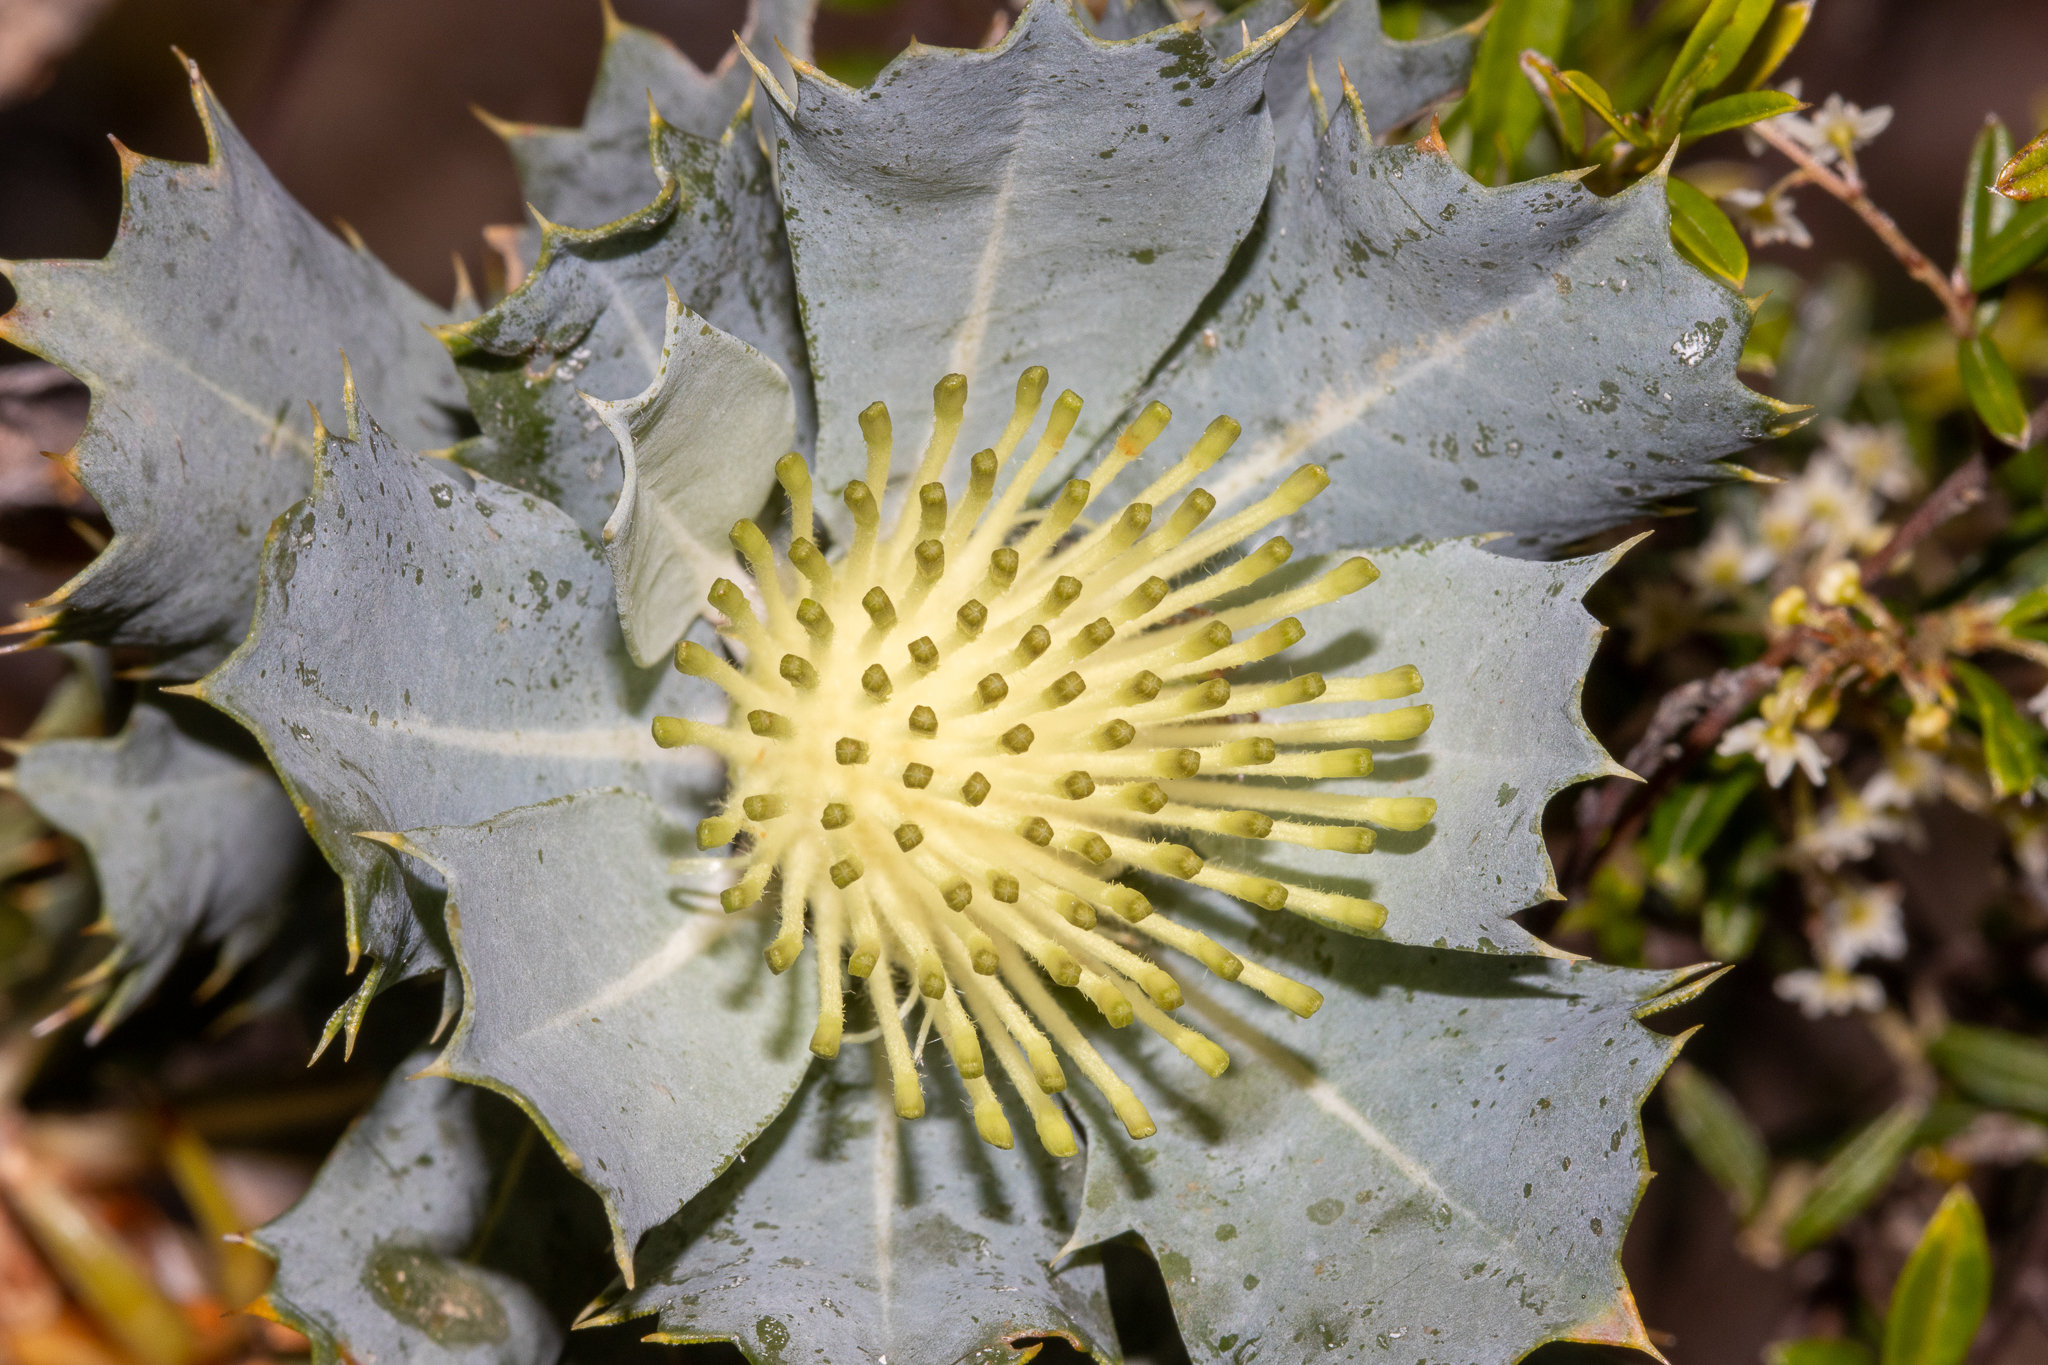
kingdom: Plantae
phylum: Tracheophyta
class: Magnoliopsida
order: Proteales
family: Proteaceae
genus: Banksia
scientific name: Banksia sessilis
